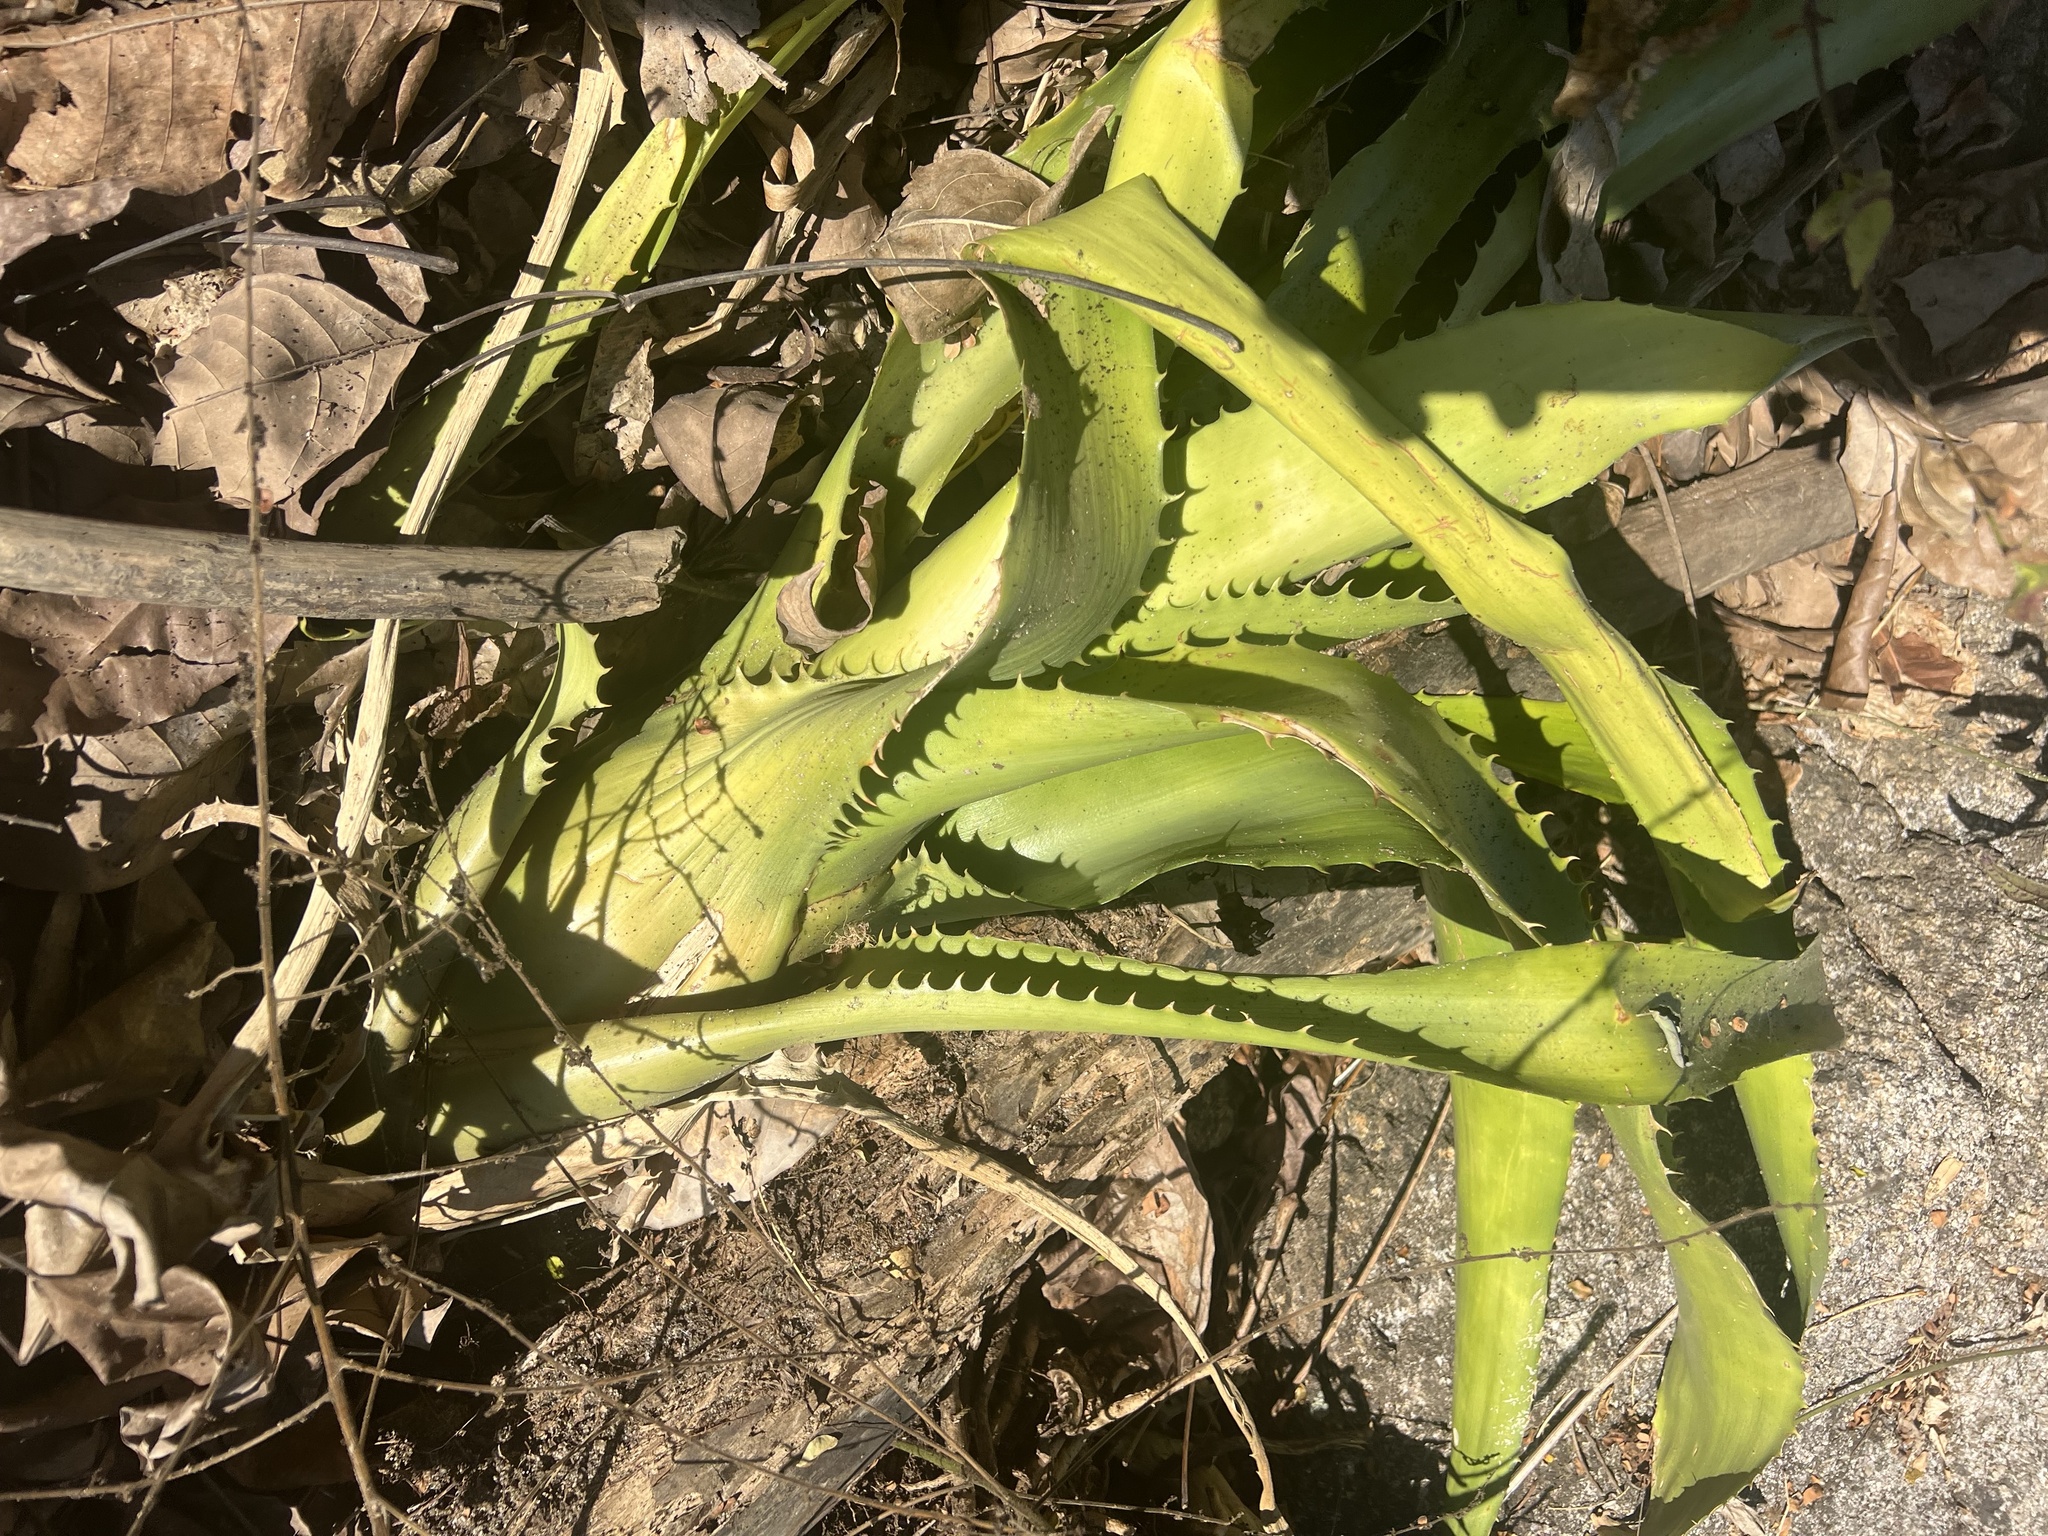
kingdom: Plantae
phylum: Tracheophyta
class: Liliopsida
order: Poales
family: Bromeliaceae
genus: Aechmea
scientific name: Aechmea bracteata
